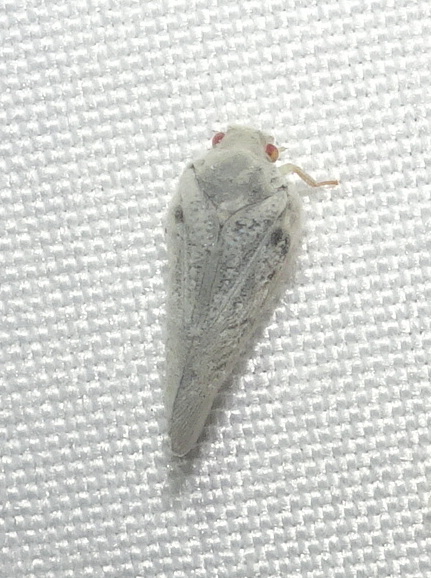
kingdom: Animalia
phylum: Arthropoda
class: Insecta
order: Hemiptera
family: Flatidae
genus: Metcalfa
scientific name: Metcalfa pruinosa
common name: Citrus flatid planthopper
